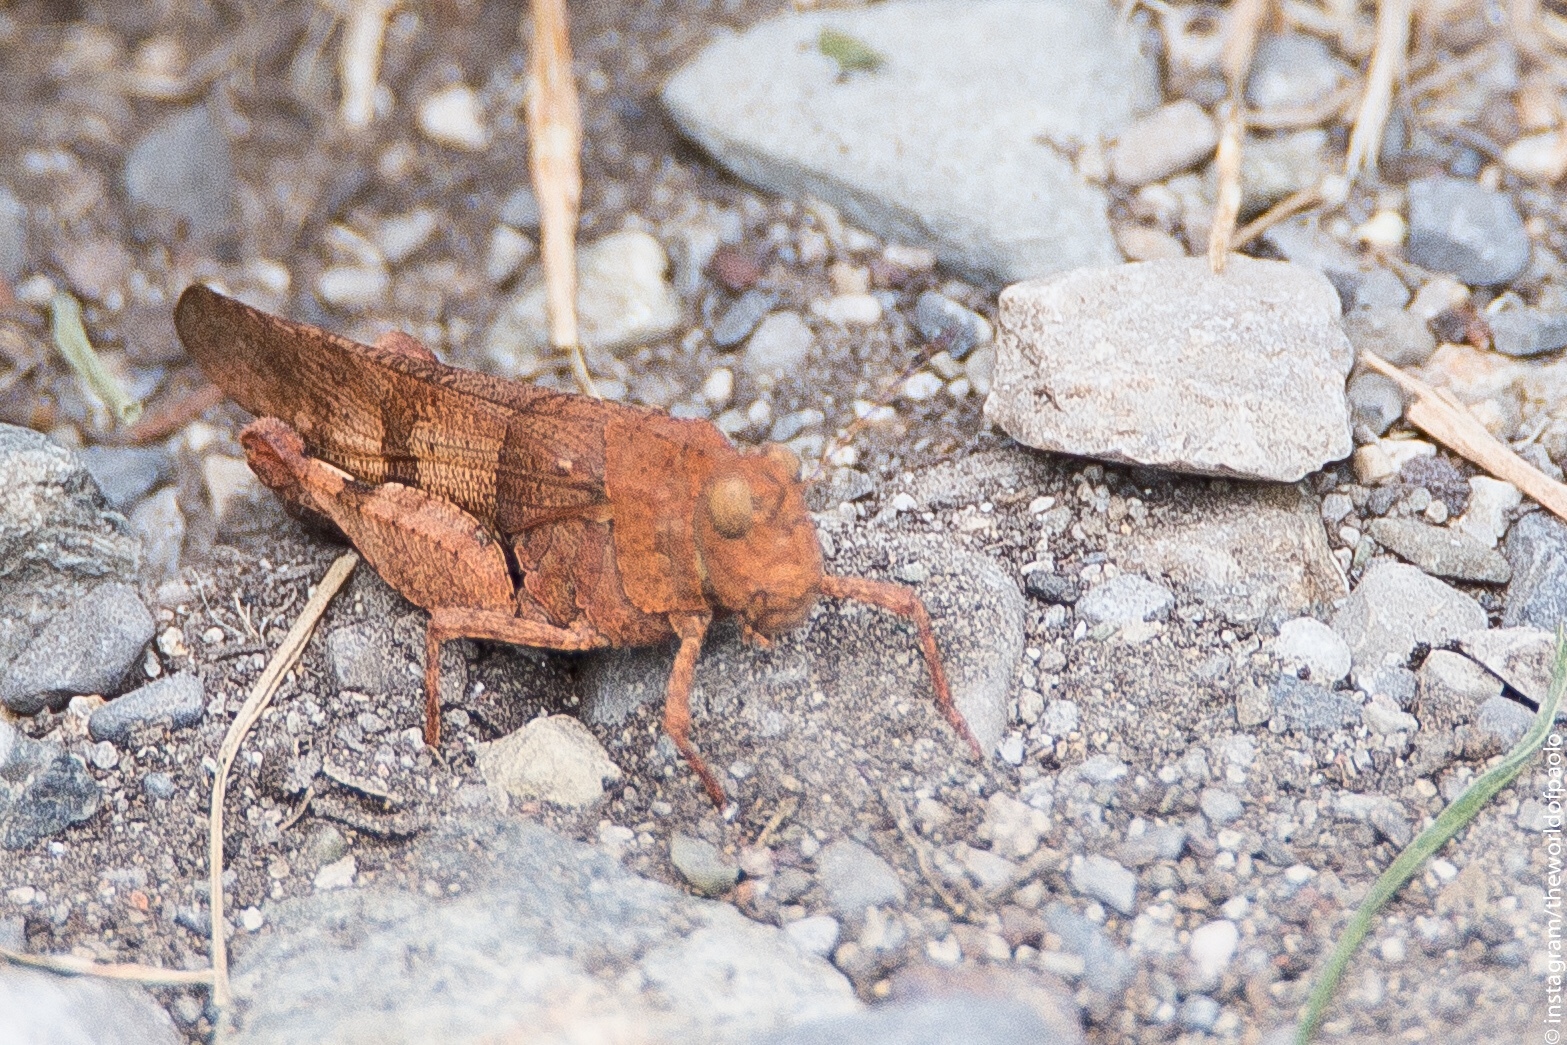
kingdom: Animalia
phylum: Arthropoda
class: Insecta
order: Orthoptera
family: Acrididae
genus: Oedipoda
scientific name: Oedipoda caerulescens
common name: Blue-winged grasshopper
